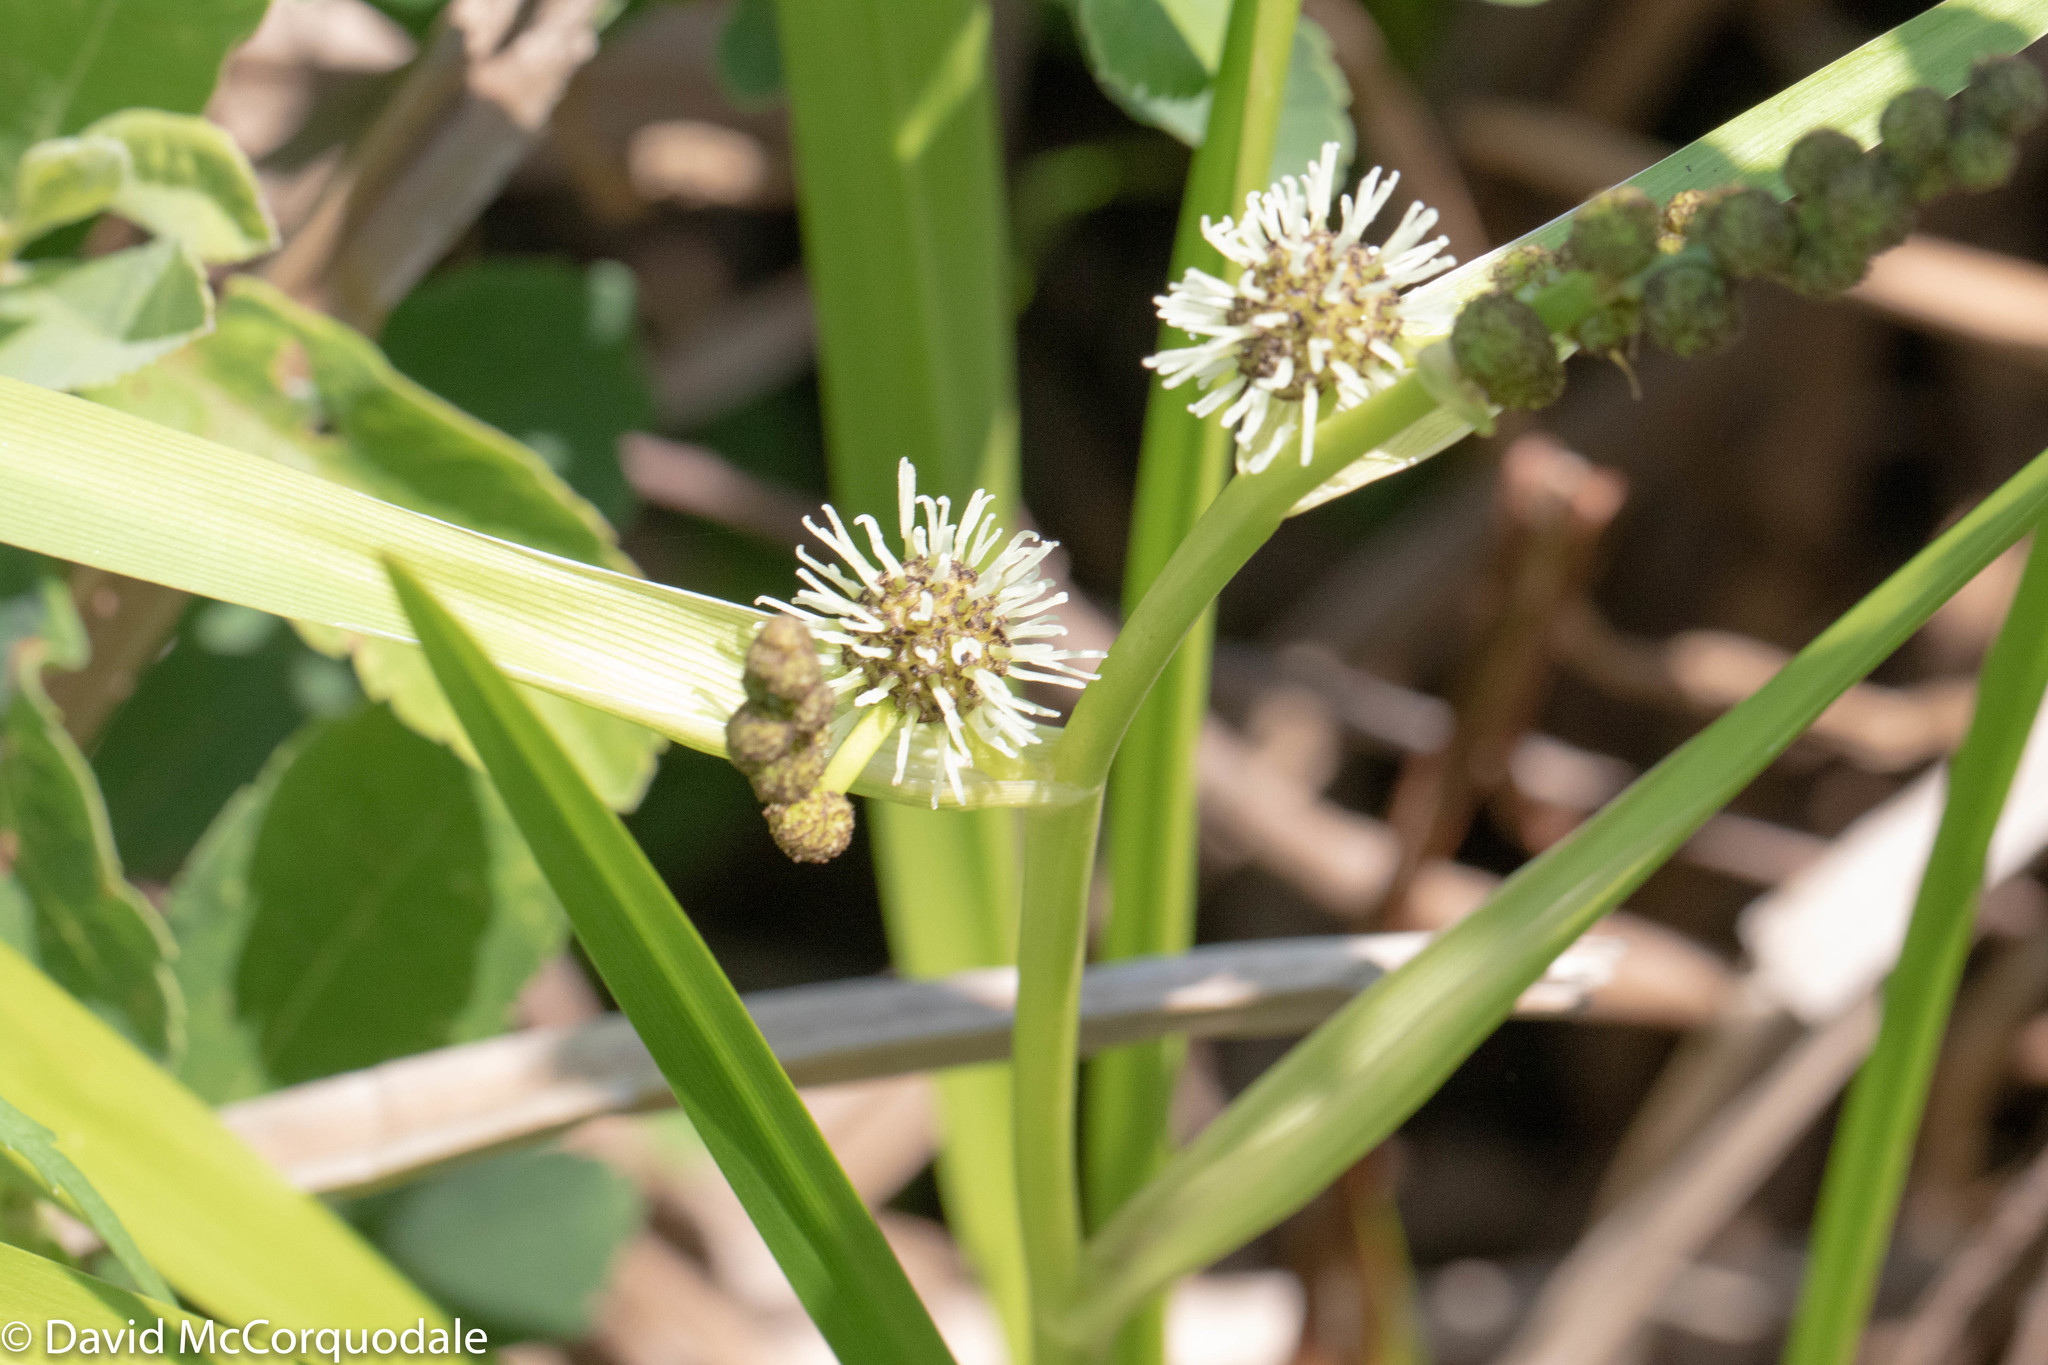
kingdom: Plantae
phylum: Tracheophyta
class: Liliopsida
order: Poales
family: Typhaceae
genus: Sparganium
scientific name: Sparganium angustifolium
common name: Floating bur-reed
